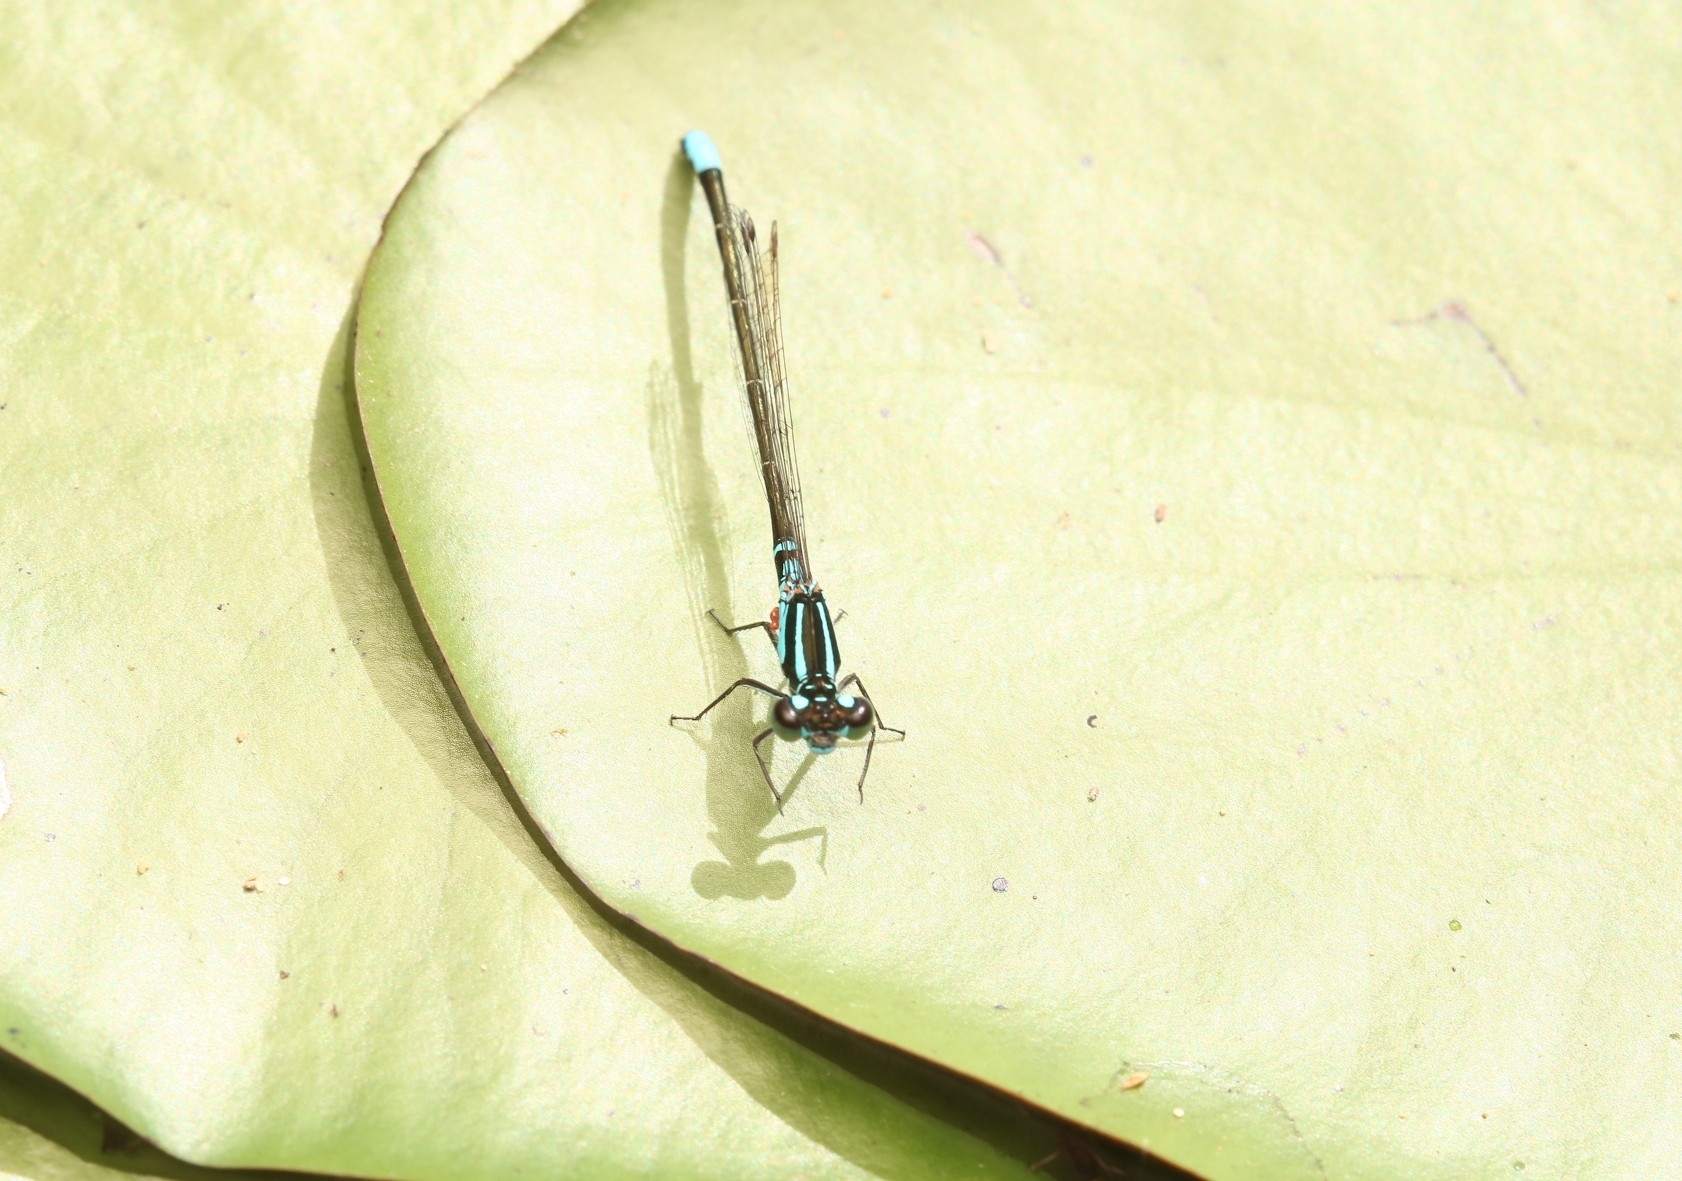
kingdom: Animalia
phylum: Arthropoda
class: Insecta
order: Odonata
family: Coenagrionidae
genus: Ischnura
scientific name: Ischnura kellicotti
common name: Lilypad forktail
